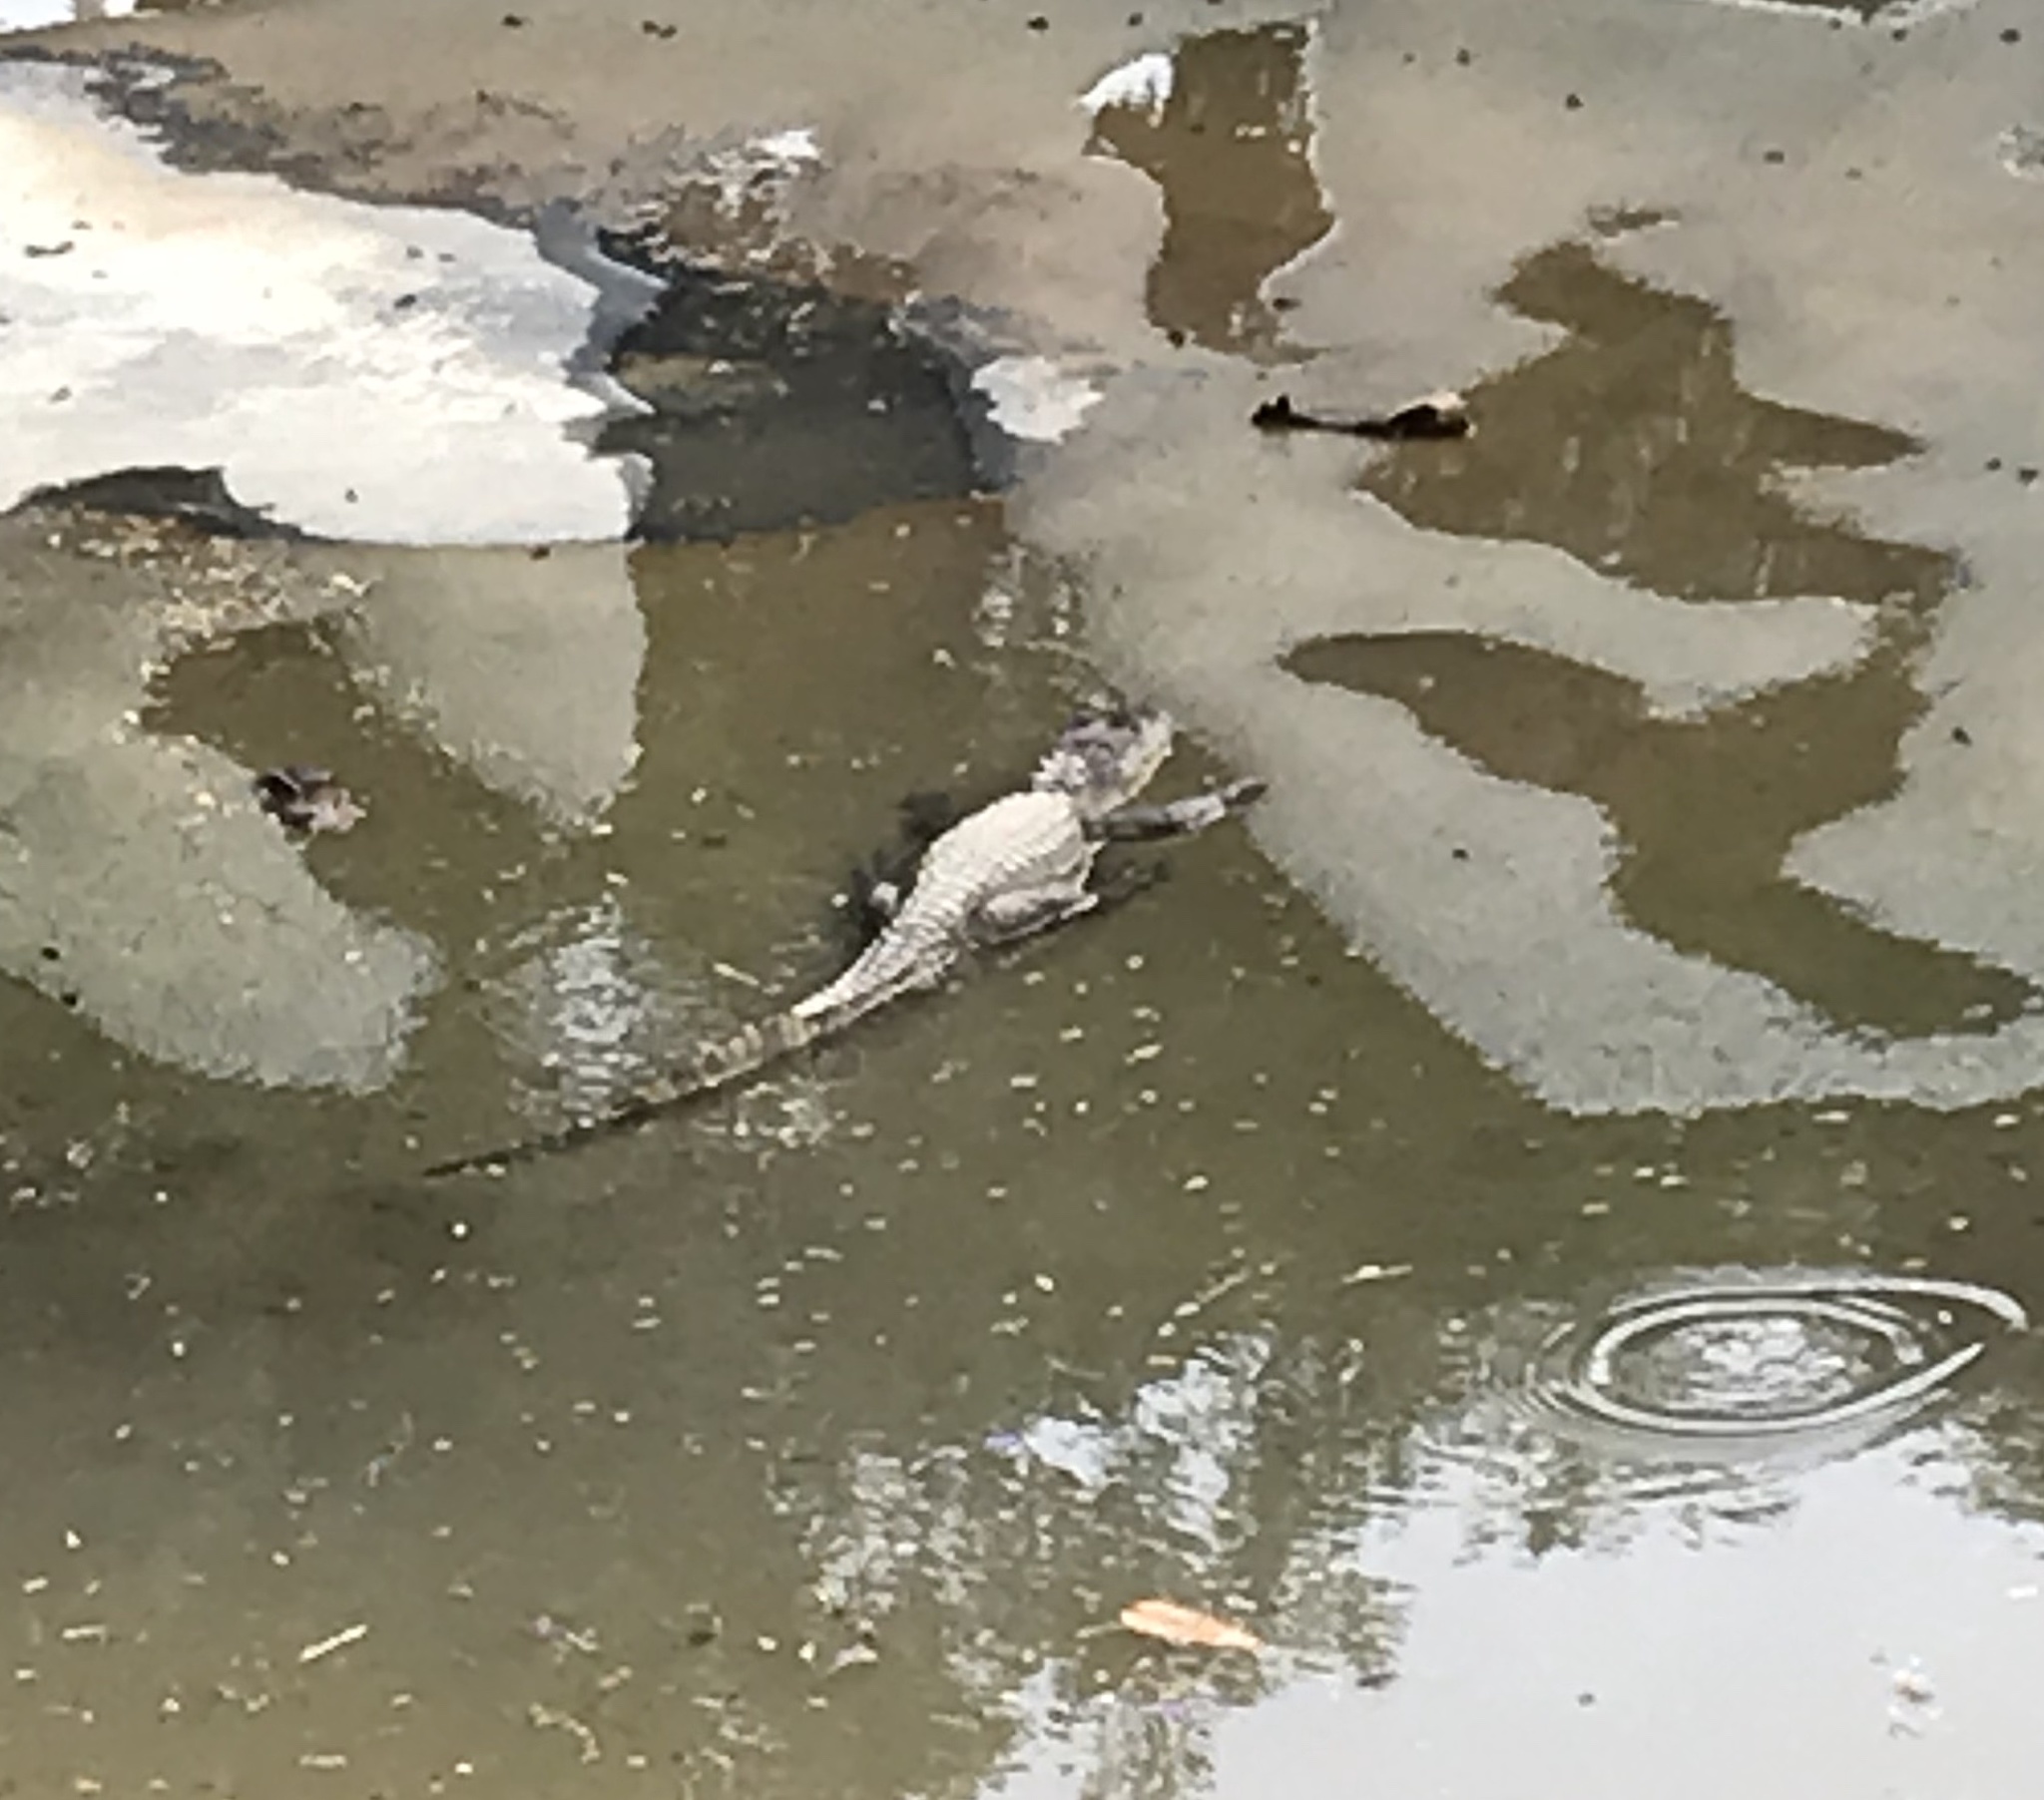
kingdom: Animalia
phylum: Chordata
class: Crocodylia
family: Alligatoridae
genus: Caiman
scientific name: Caiman crocodilus
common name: Common caiman
